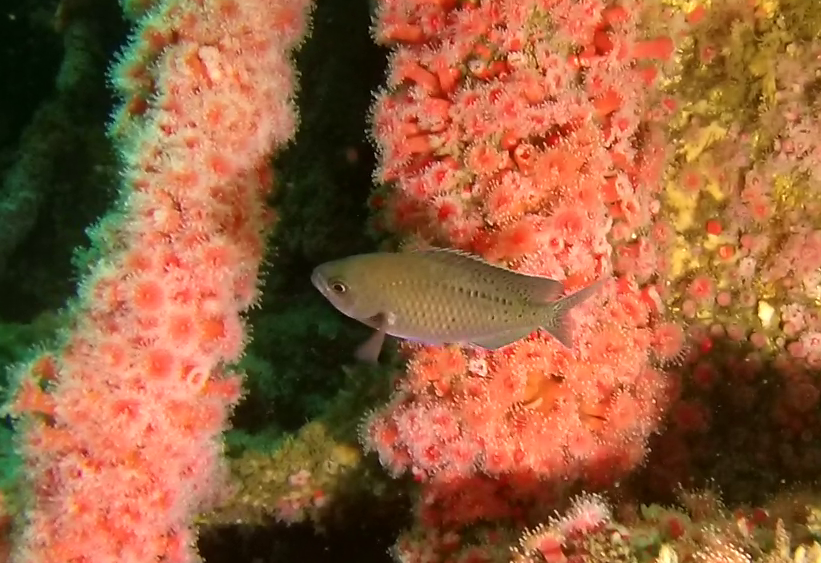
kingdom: Animalia
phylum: Chordata
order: Perciformes
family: Pomacentridae
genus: Chromis
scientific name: Chromis punctipinnis
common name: Blacksmith
